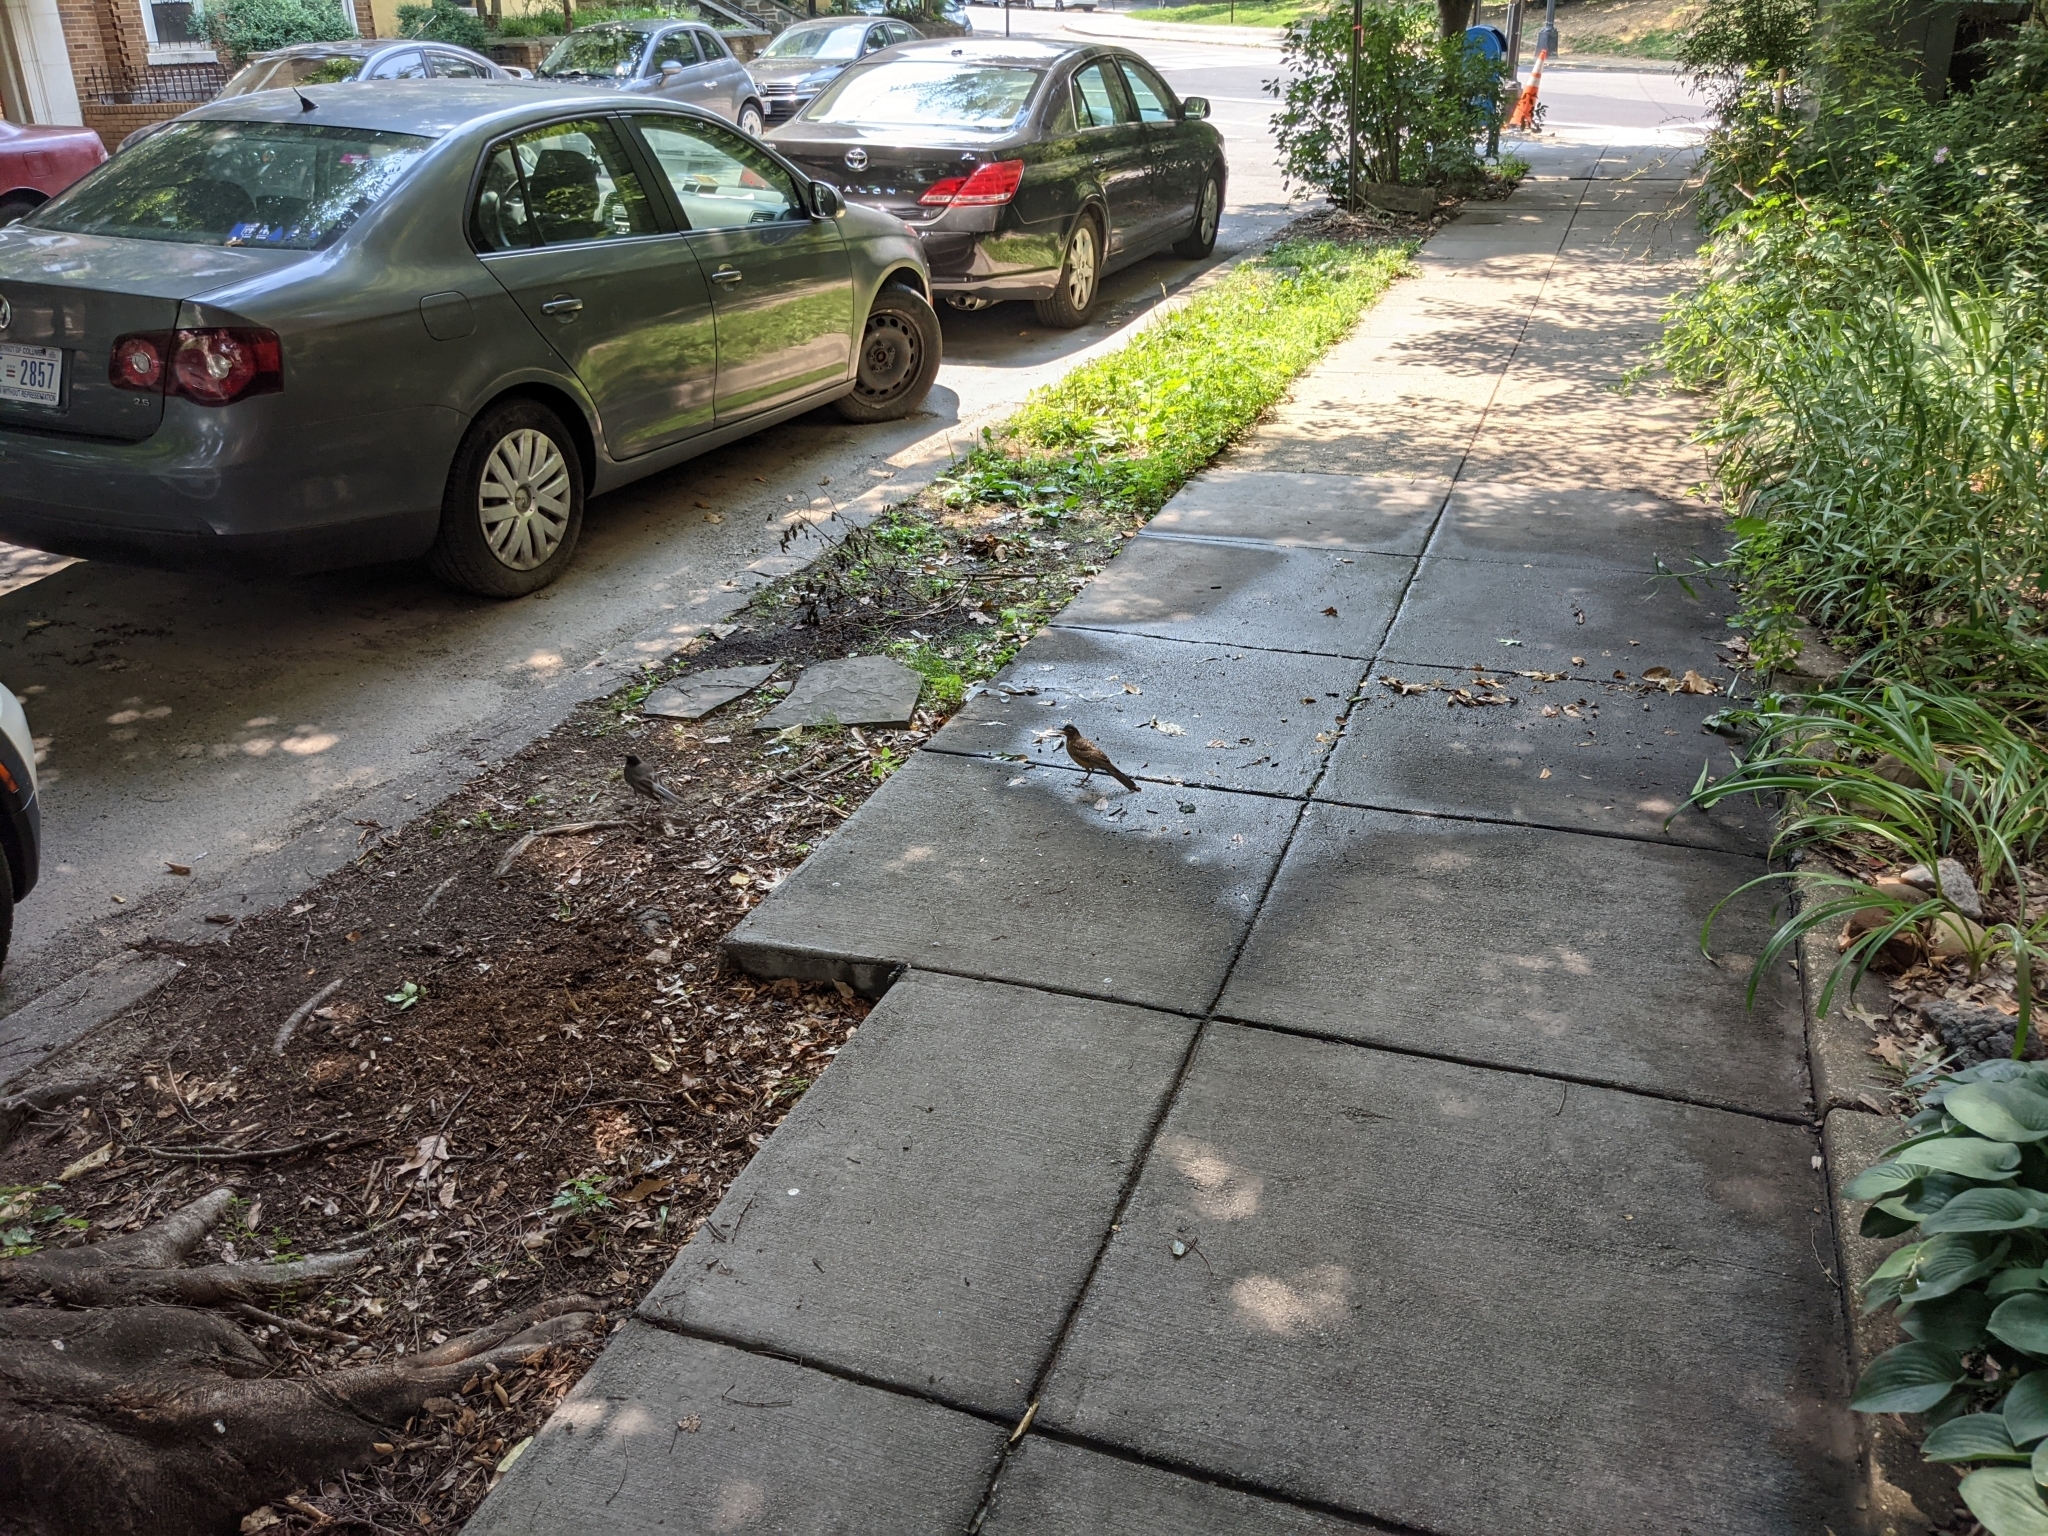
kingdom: Animalia
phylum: Chordata
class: Aves
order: Passeriformes
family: Turdidae
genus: Turdus
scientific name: Turdus migratorius
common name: American robin
